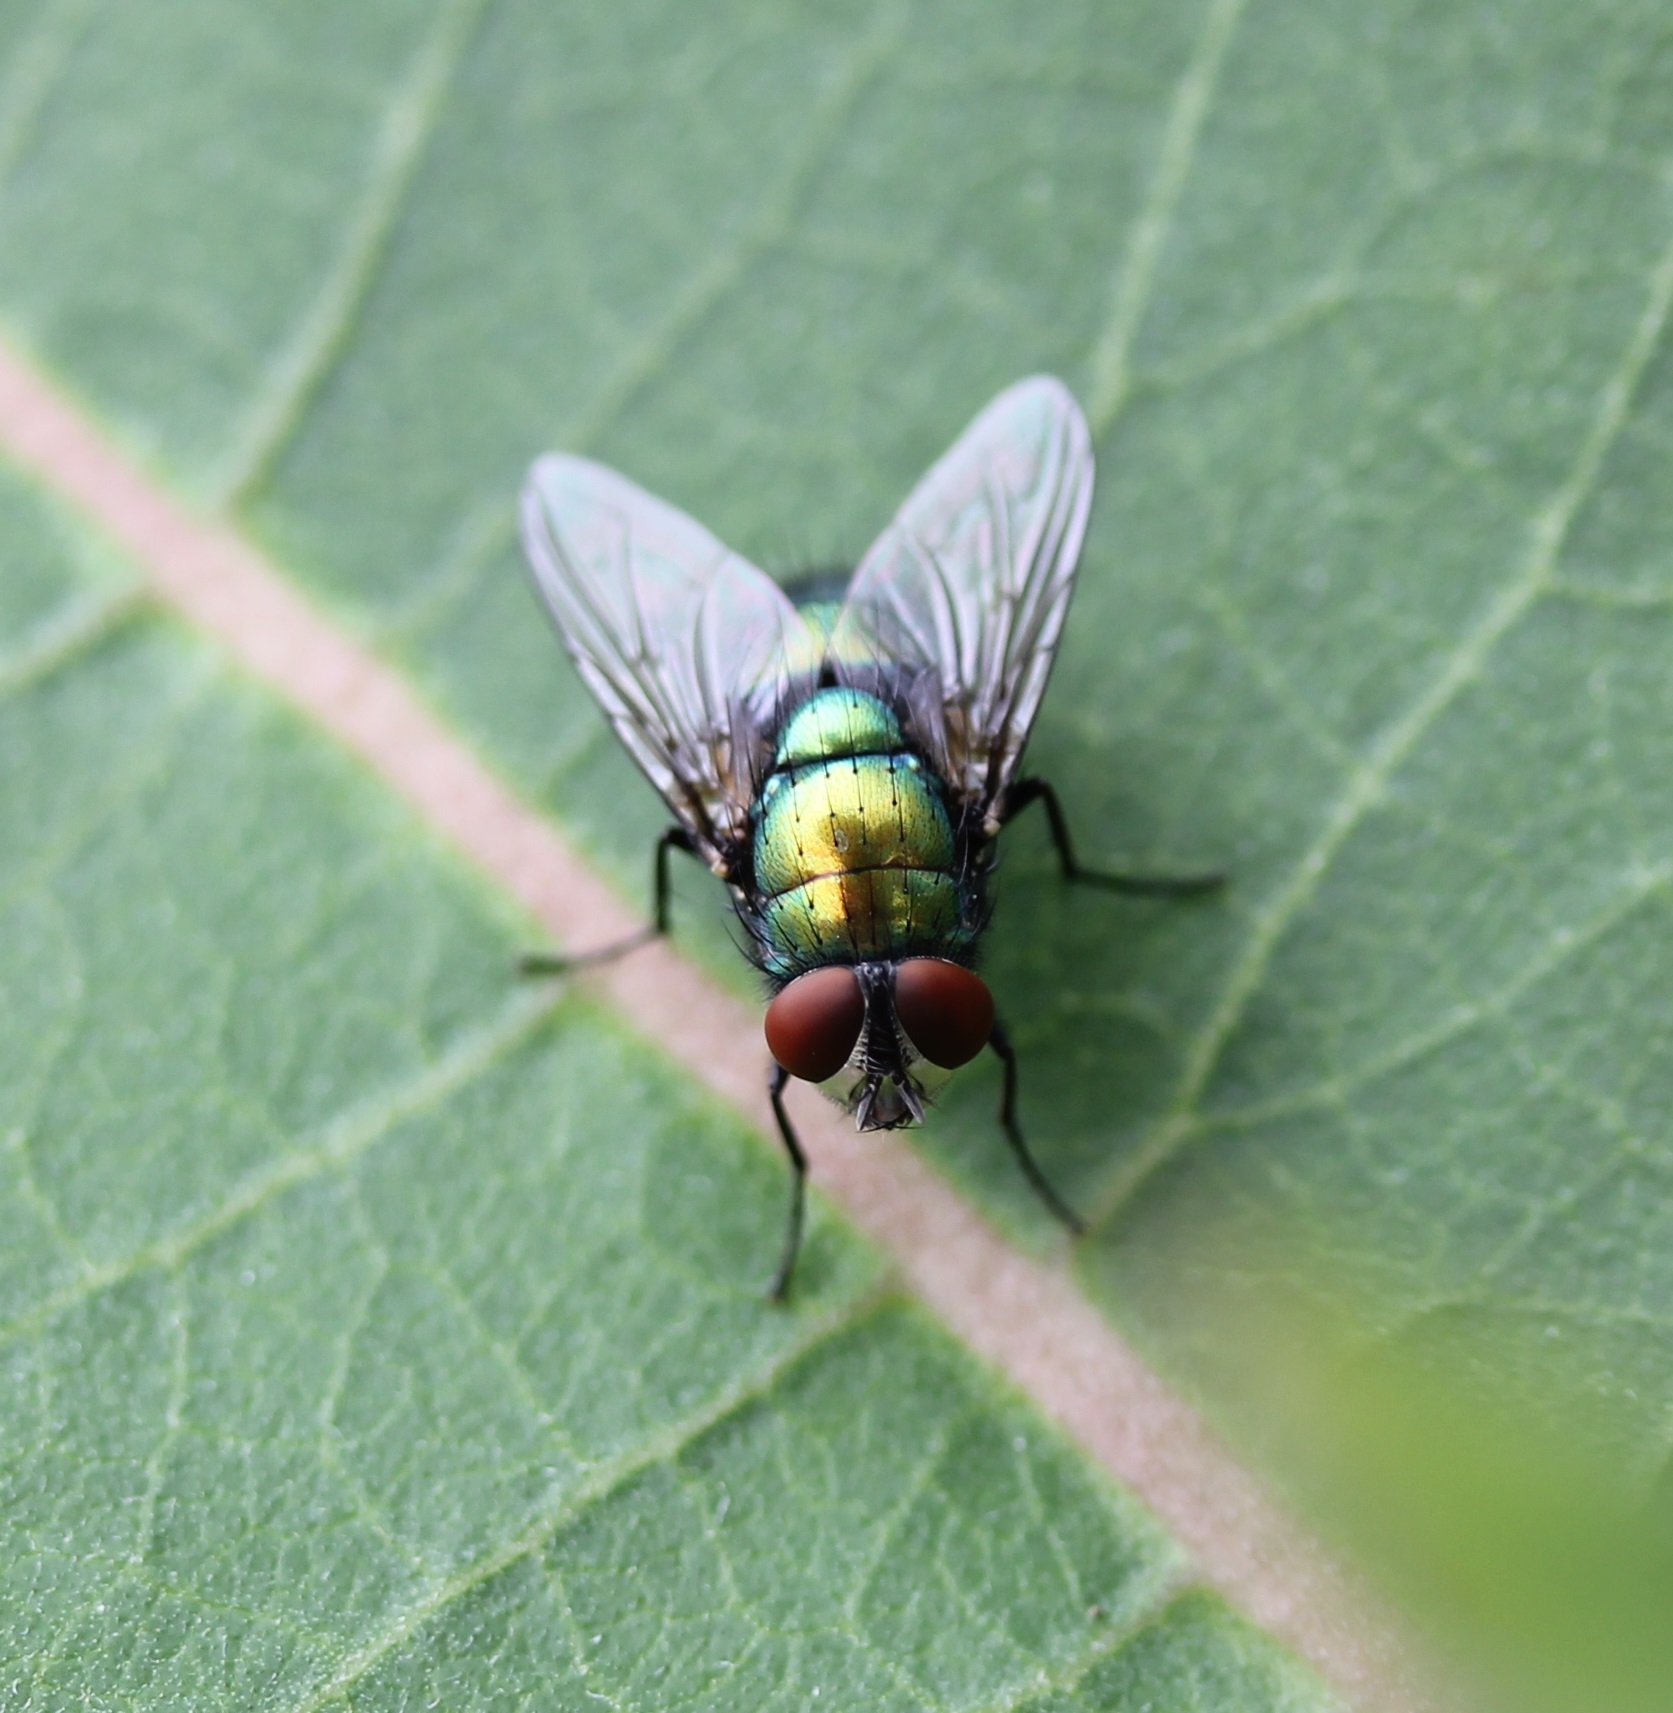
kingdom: Animalia
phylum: Arthropoda
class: Insecta
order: Diptera
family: Calliphoridae
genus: Lucilia
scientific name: Lucilia sericata
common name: Blow fly
